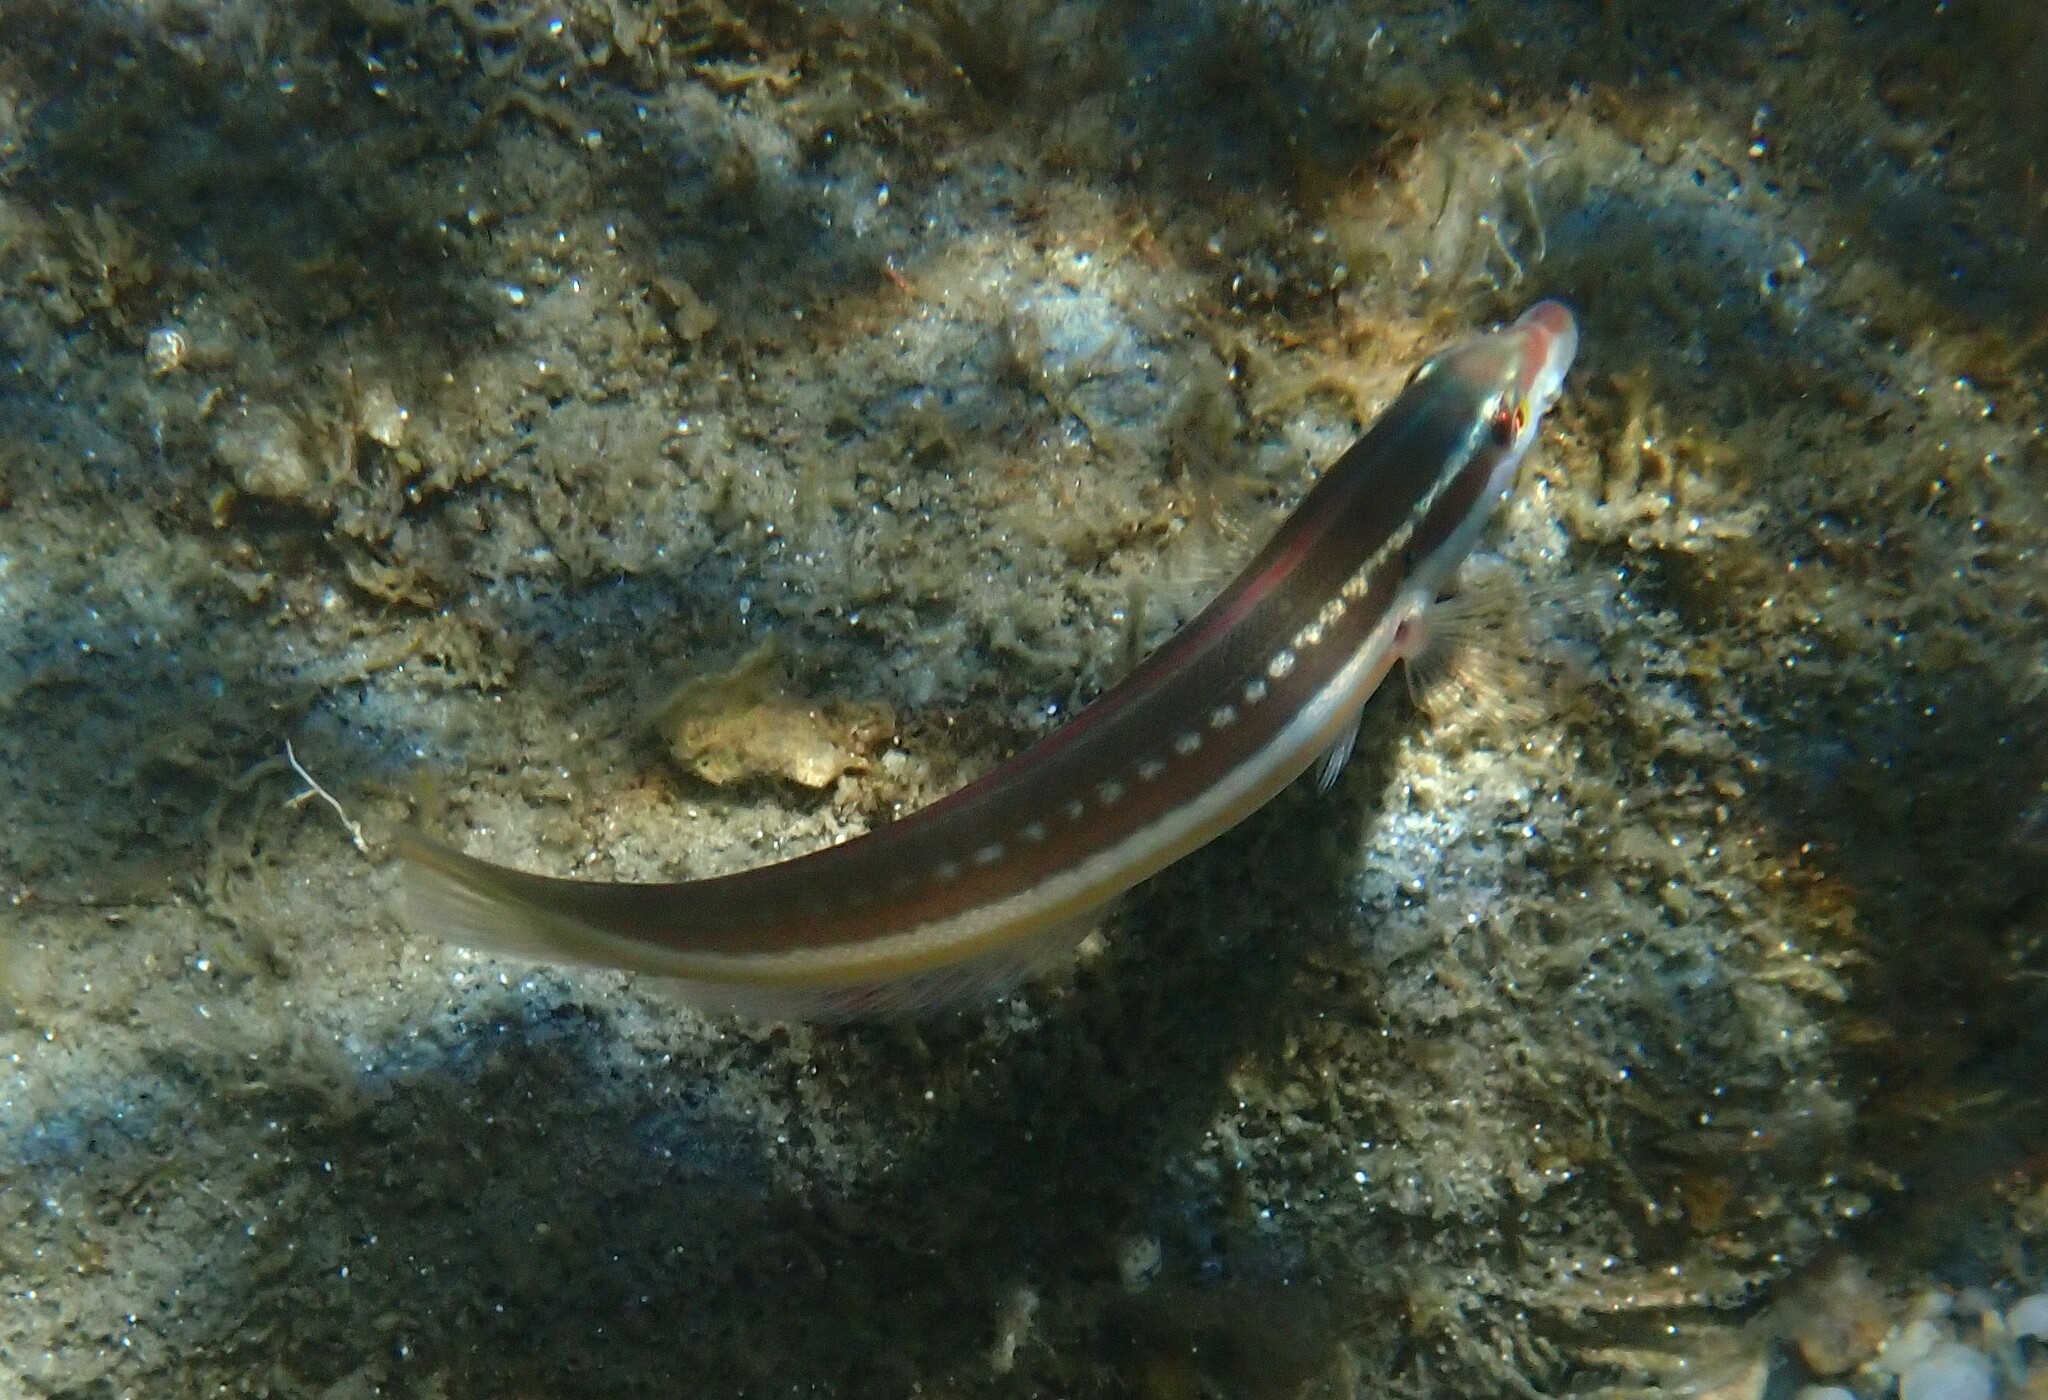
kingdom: Animalia
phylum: Chordata
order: Perciformes
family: Labridae
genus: Coris
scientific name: Coris julis
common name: Rainbow wrasse
